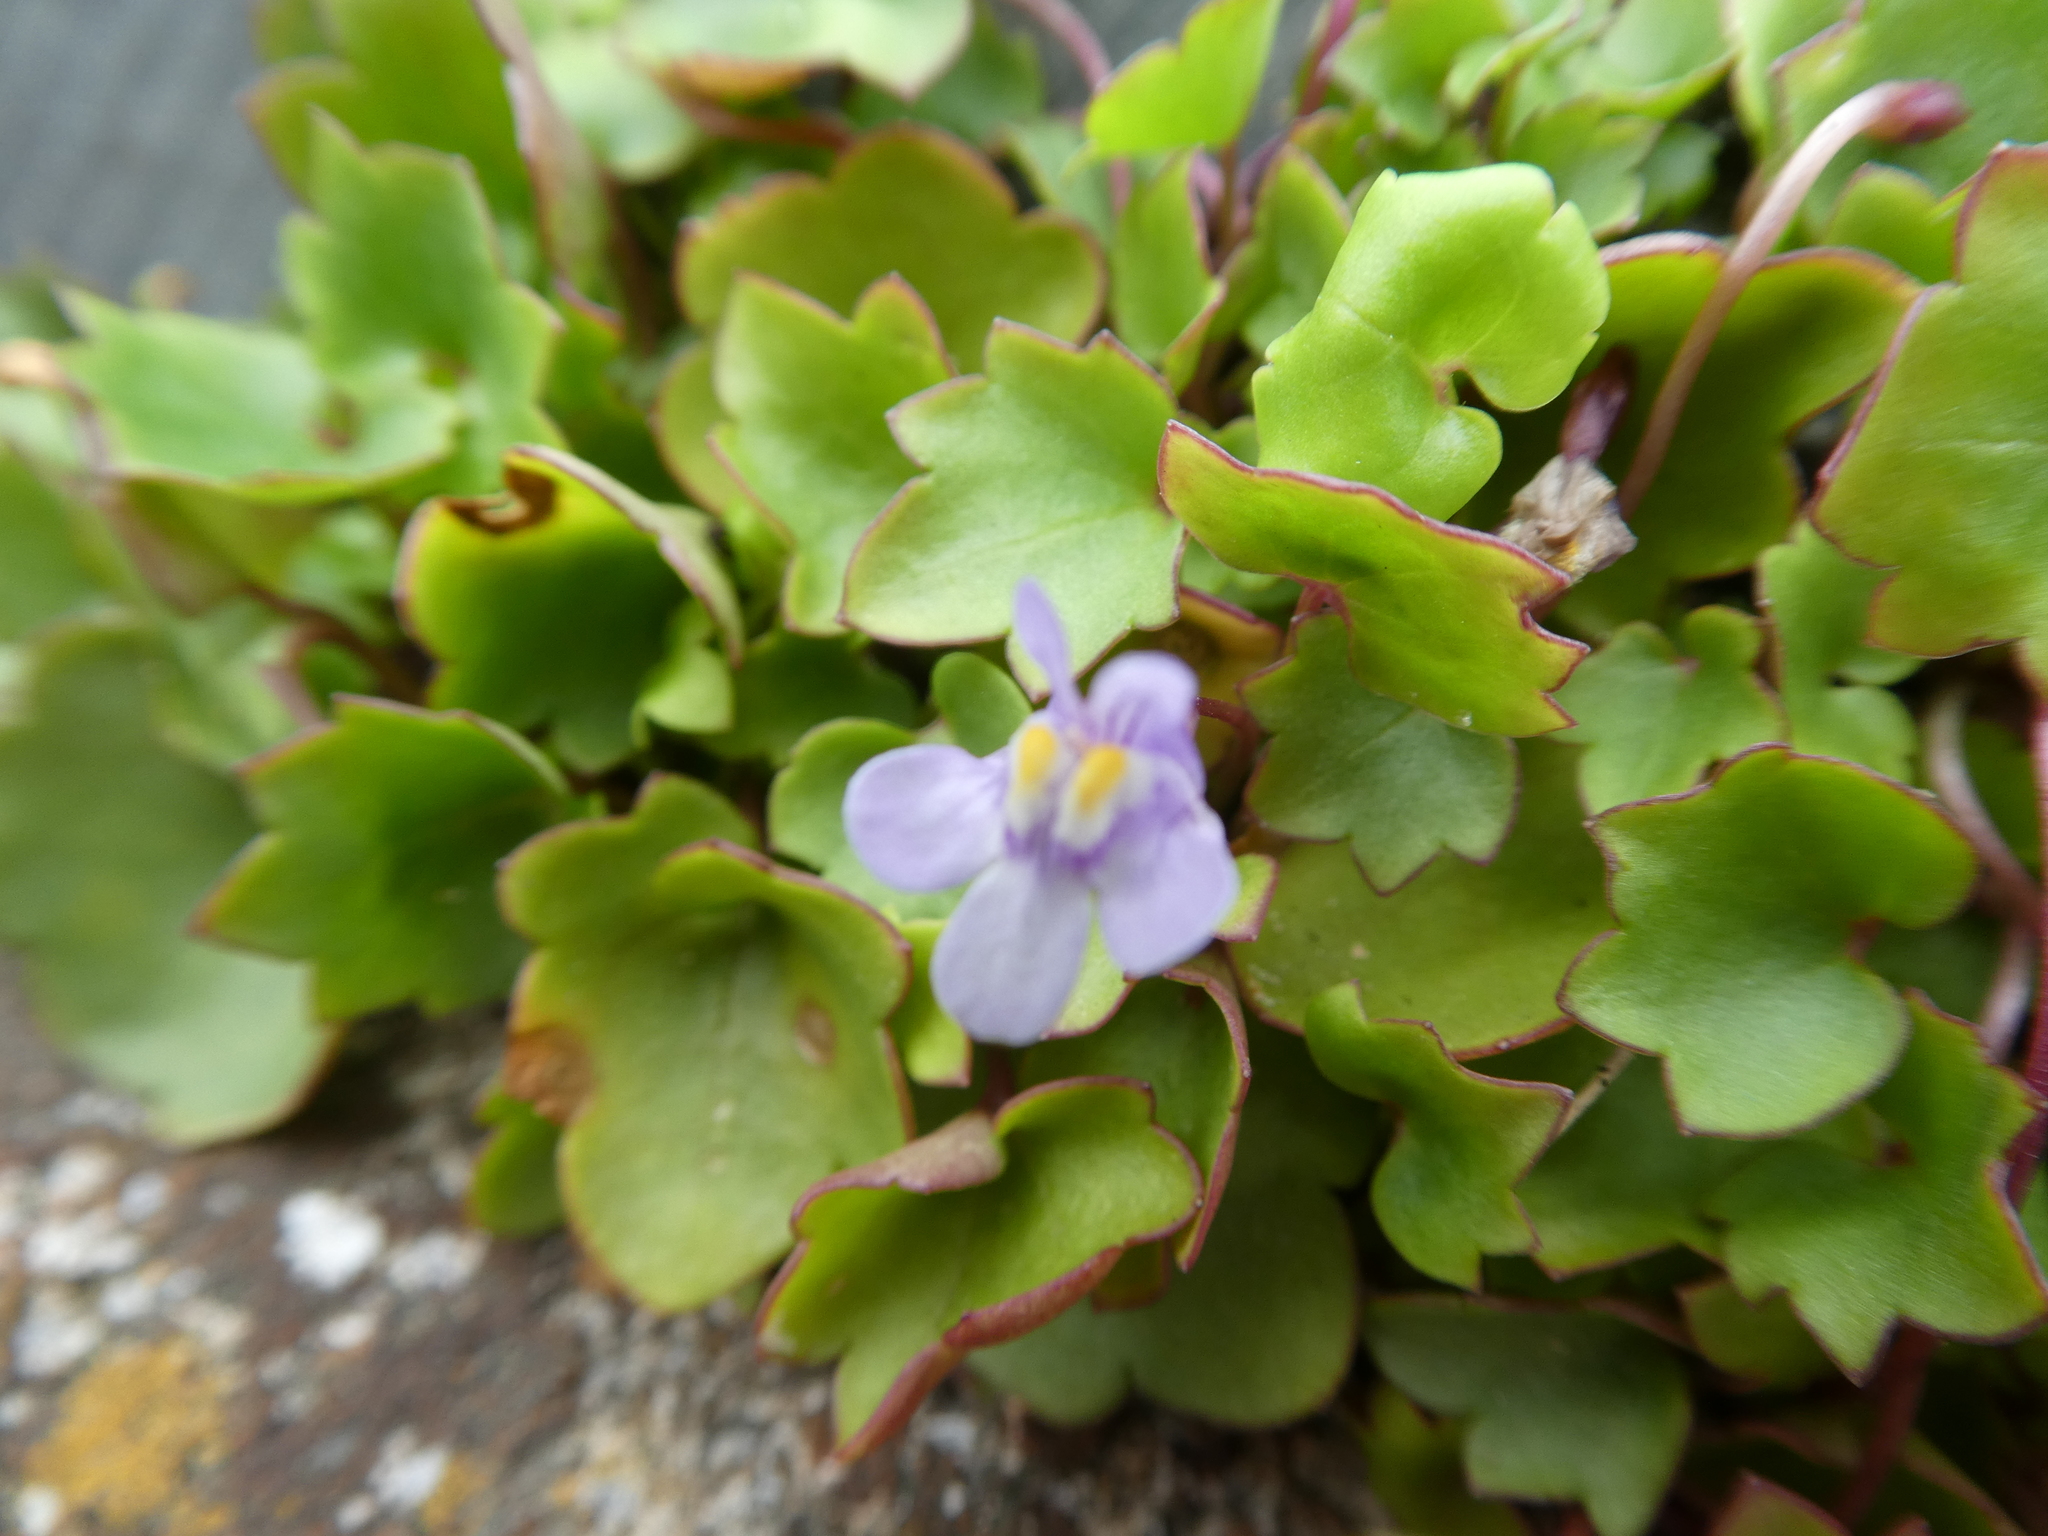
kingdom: Plantae
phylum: Tracheophyta
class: Magnoliopsida
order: Lamiales
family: Plantaginaceae
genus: Cymbalaria
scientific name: Cymbalaria muralis
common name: Ivy-leaved toadflax
